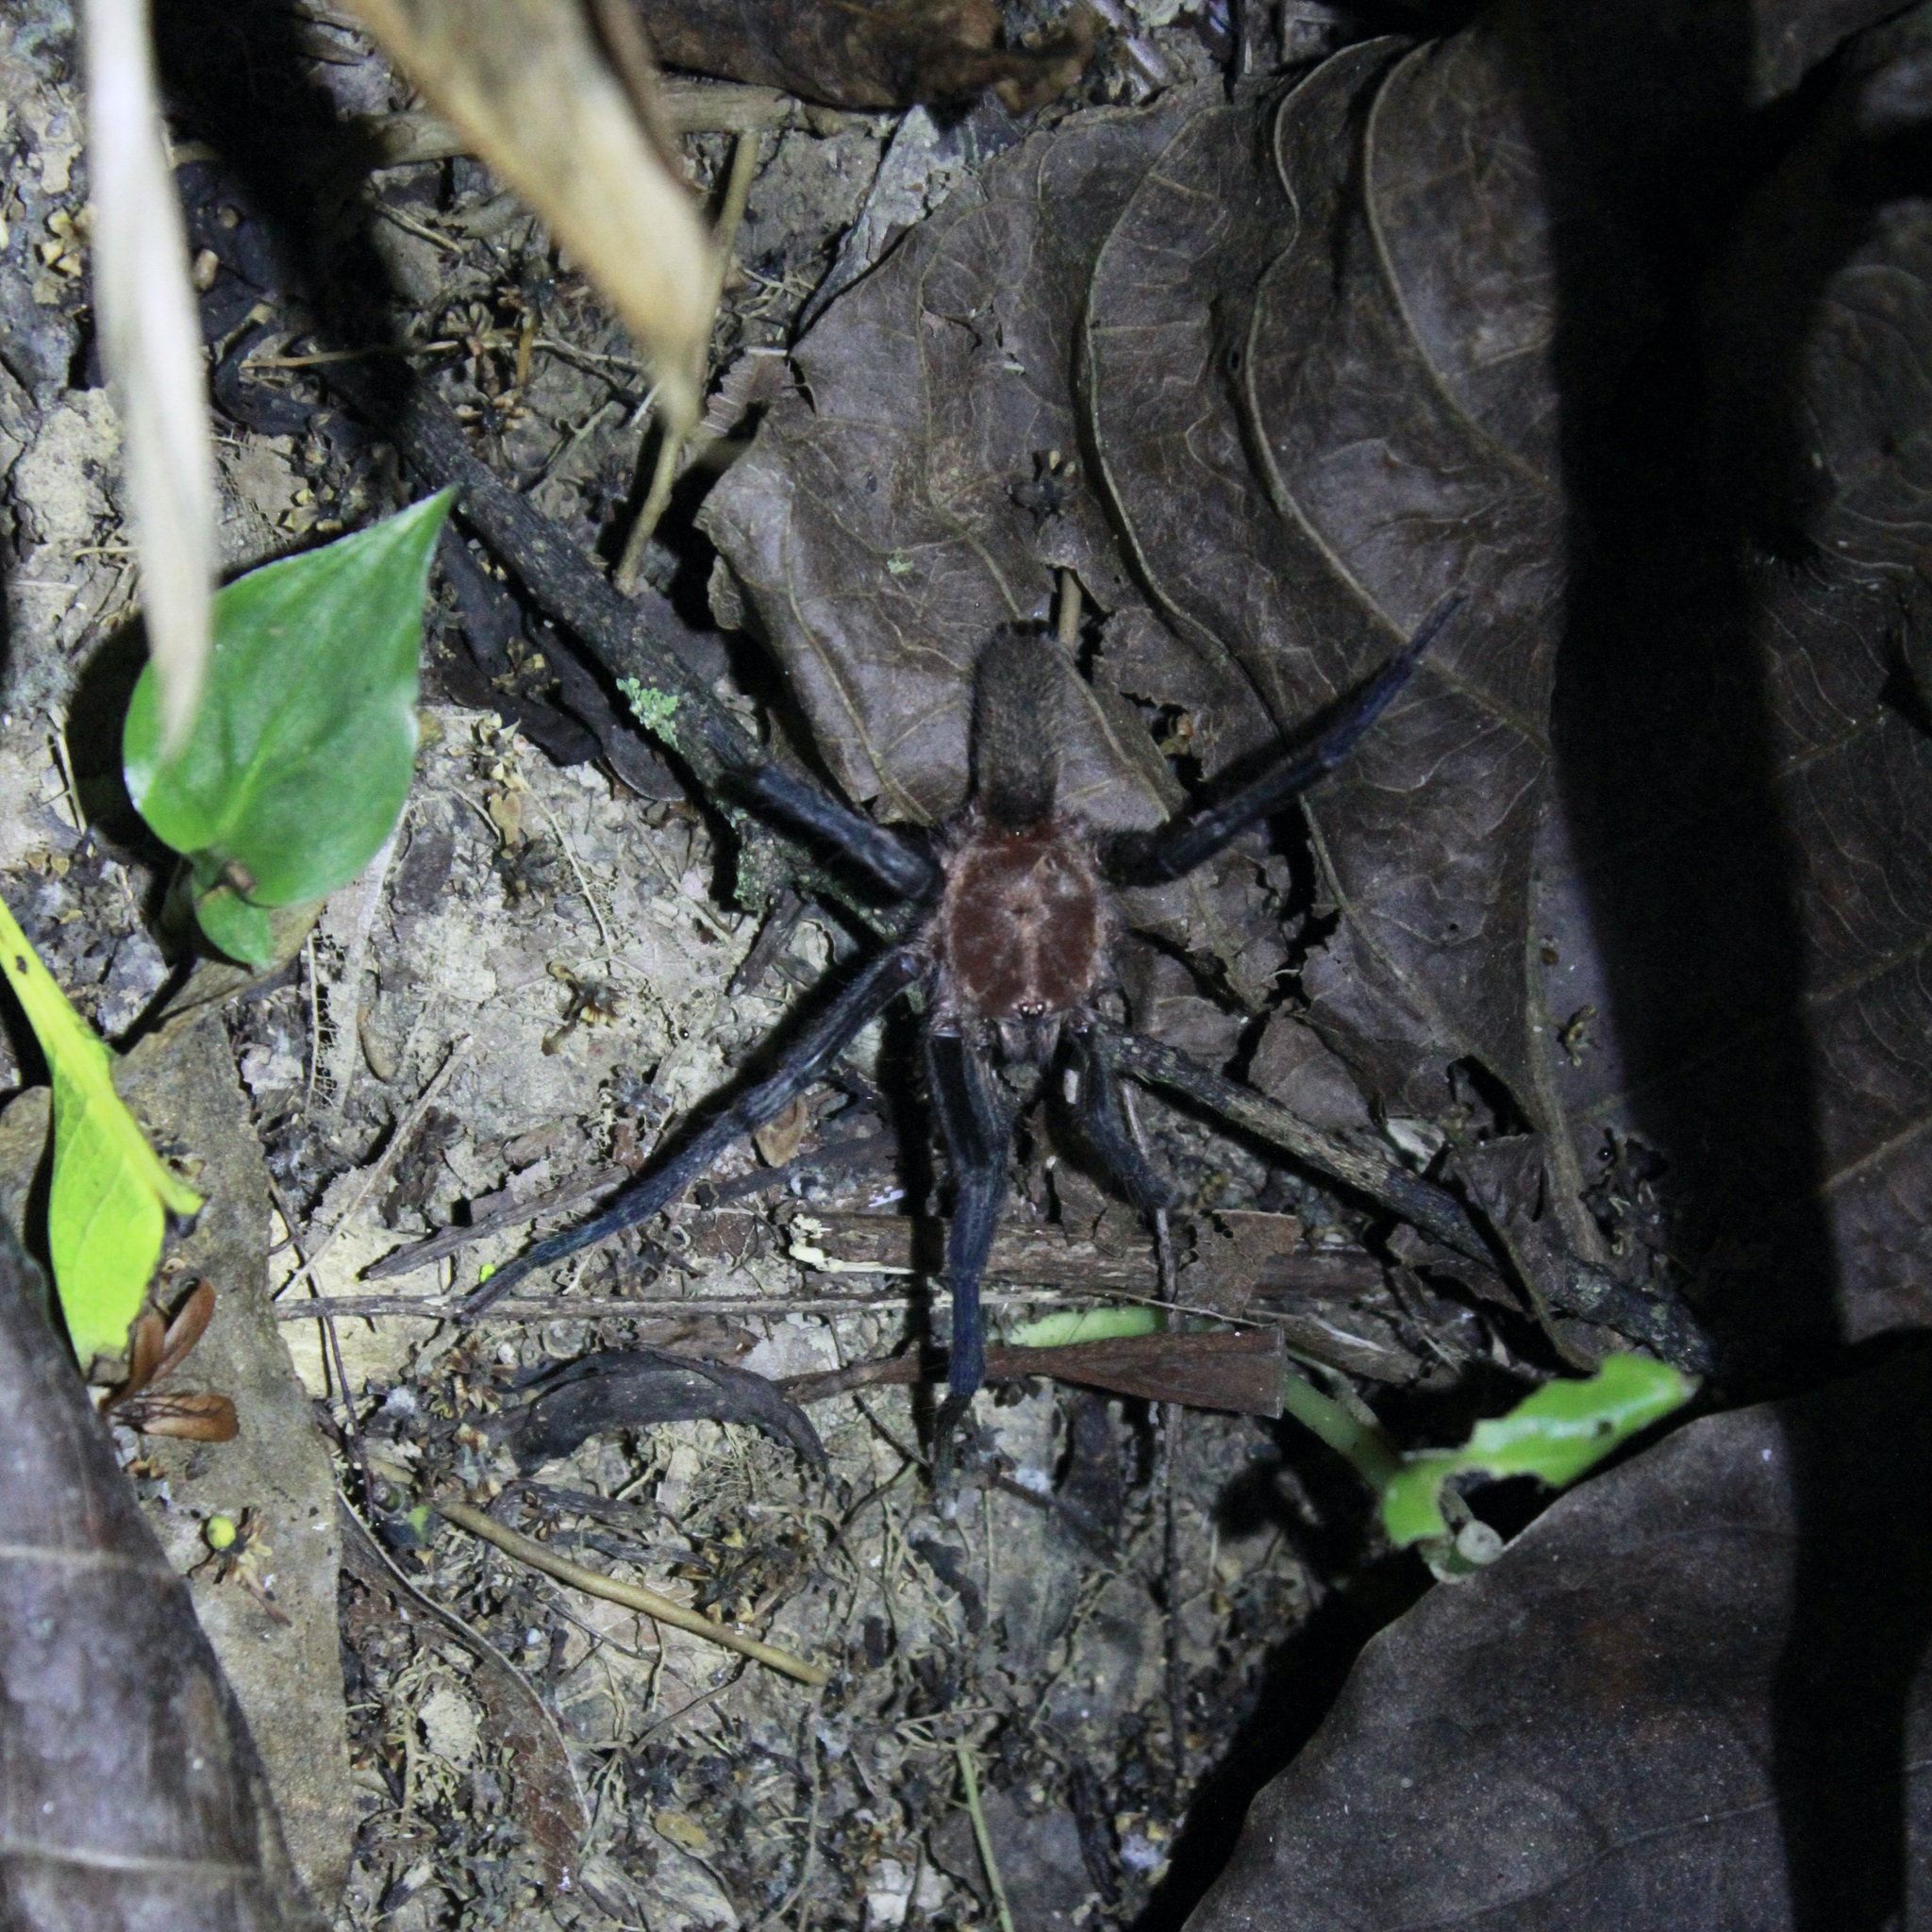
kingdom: Animalia
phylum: Arthropoda
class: Arachnida
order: Araneae
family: Theraphosidae
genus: Holothele
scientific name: Holothele longipes
